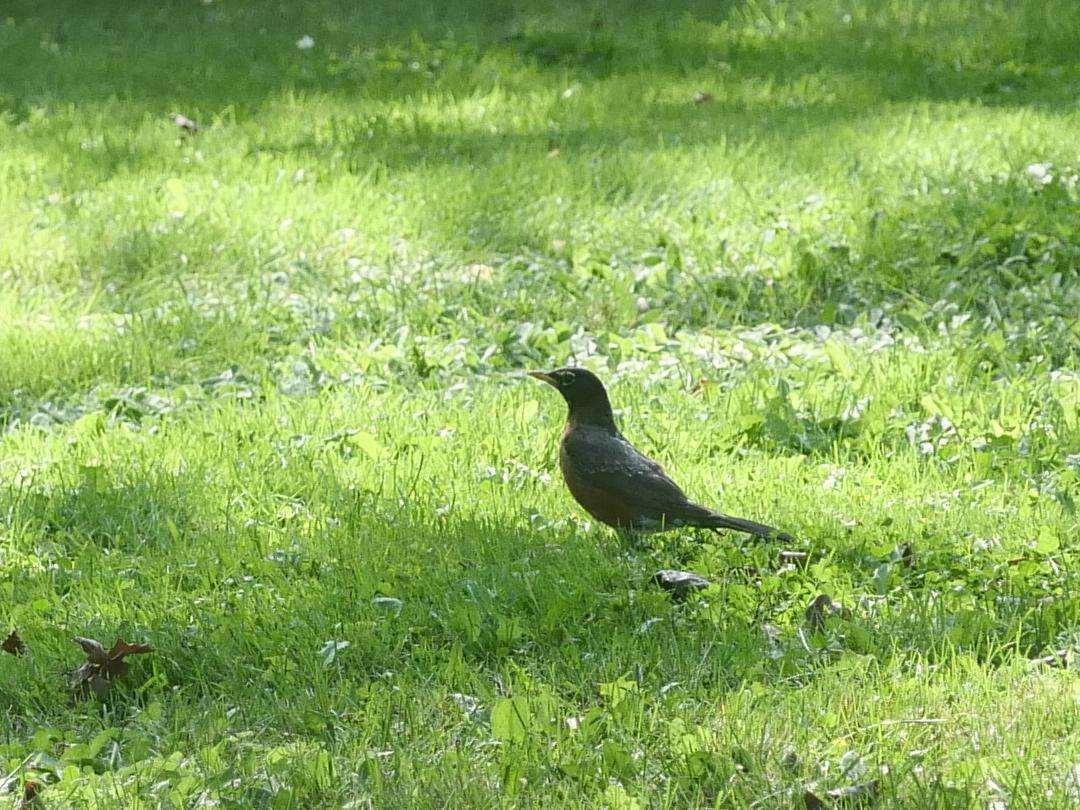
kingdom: Animalia
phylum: Chordata
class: Aves
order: Passeriformes
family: Turdidae
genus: Turdus
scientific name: Turdus migratorius
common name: American robin
